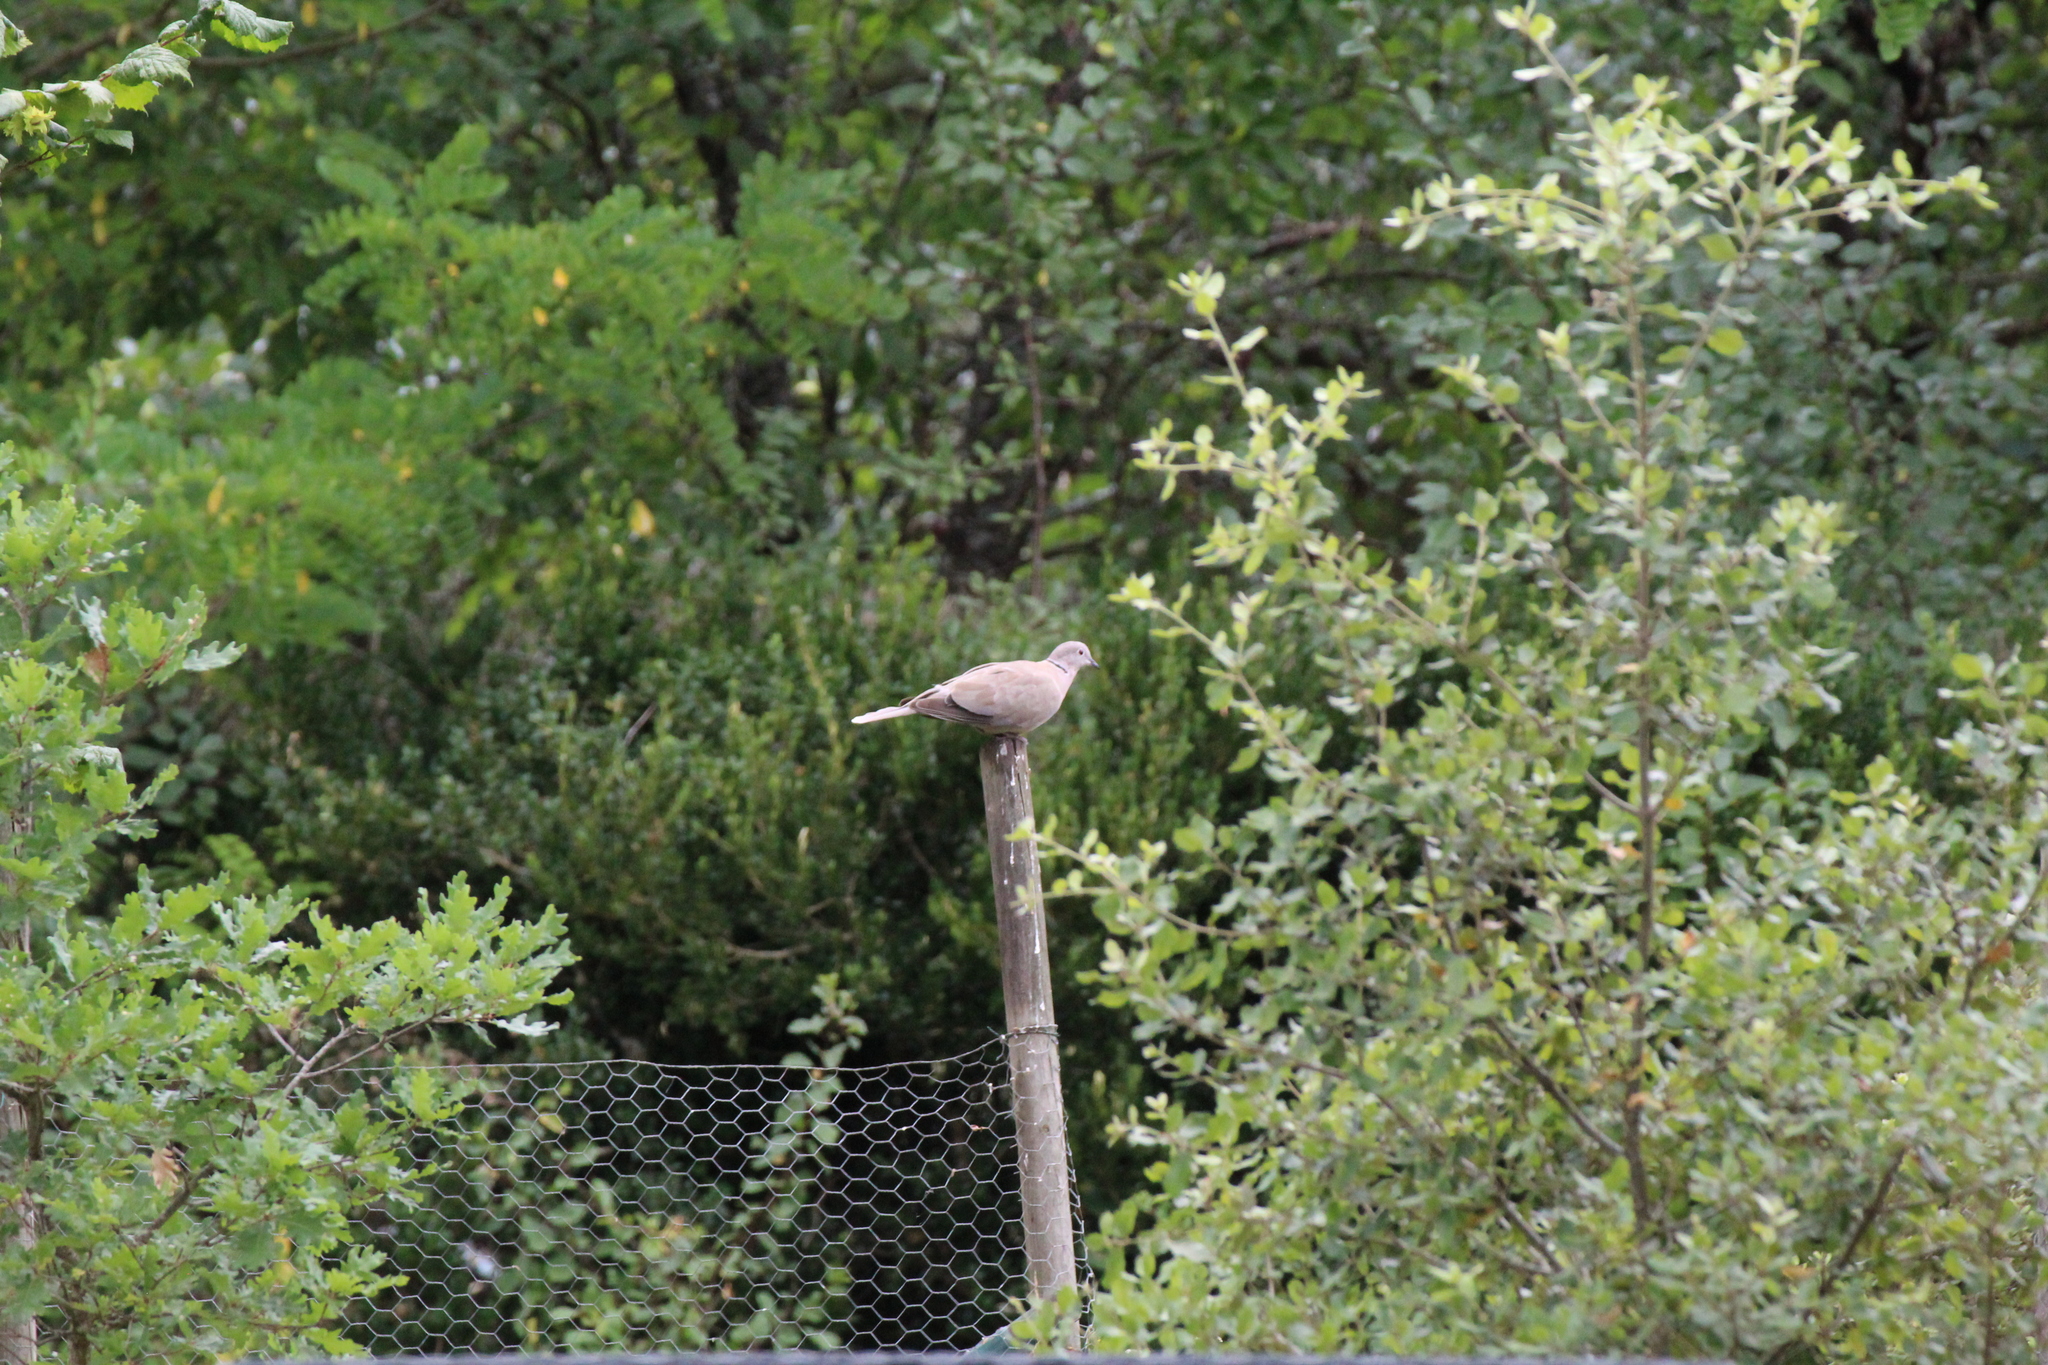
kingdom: Animalia
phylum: Chordata
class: Aves
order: Columbiformes
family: Columbidae
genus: Streptopelia
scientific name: Streptopelia decaocto
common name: Eurasian collared dove
